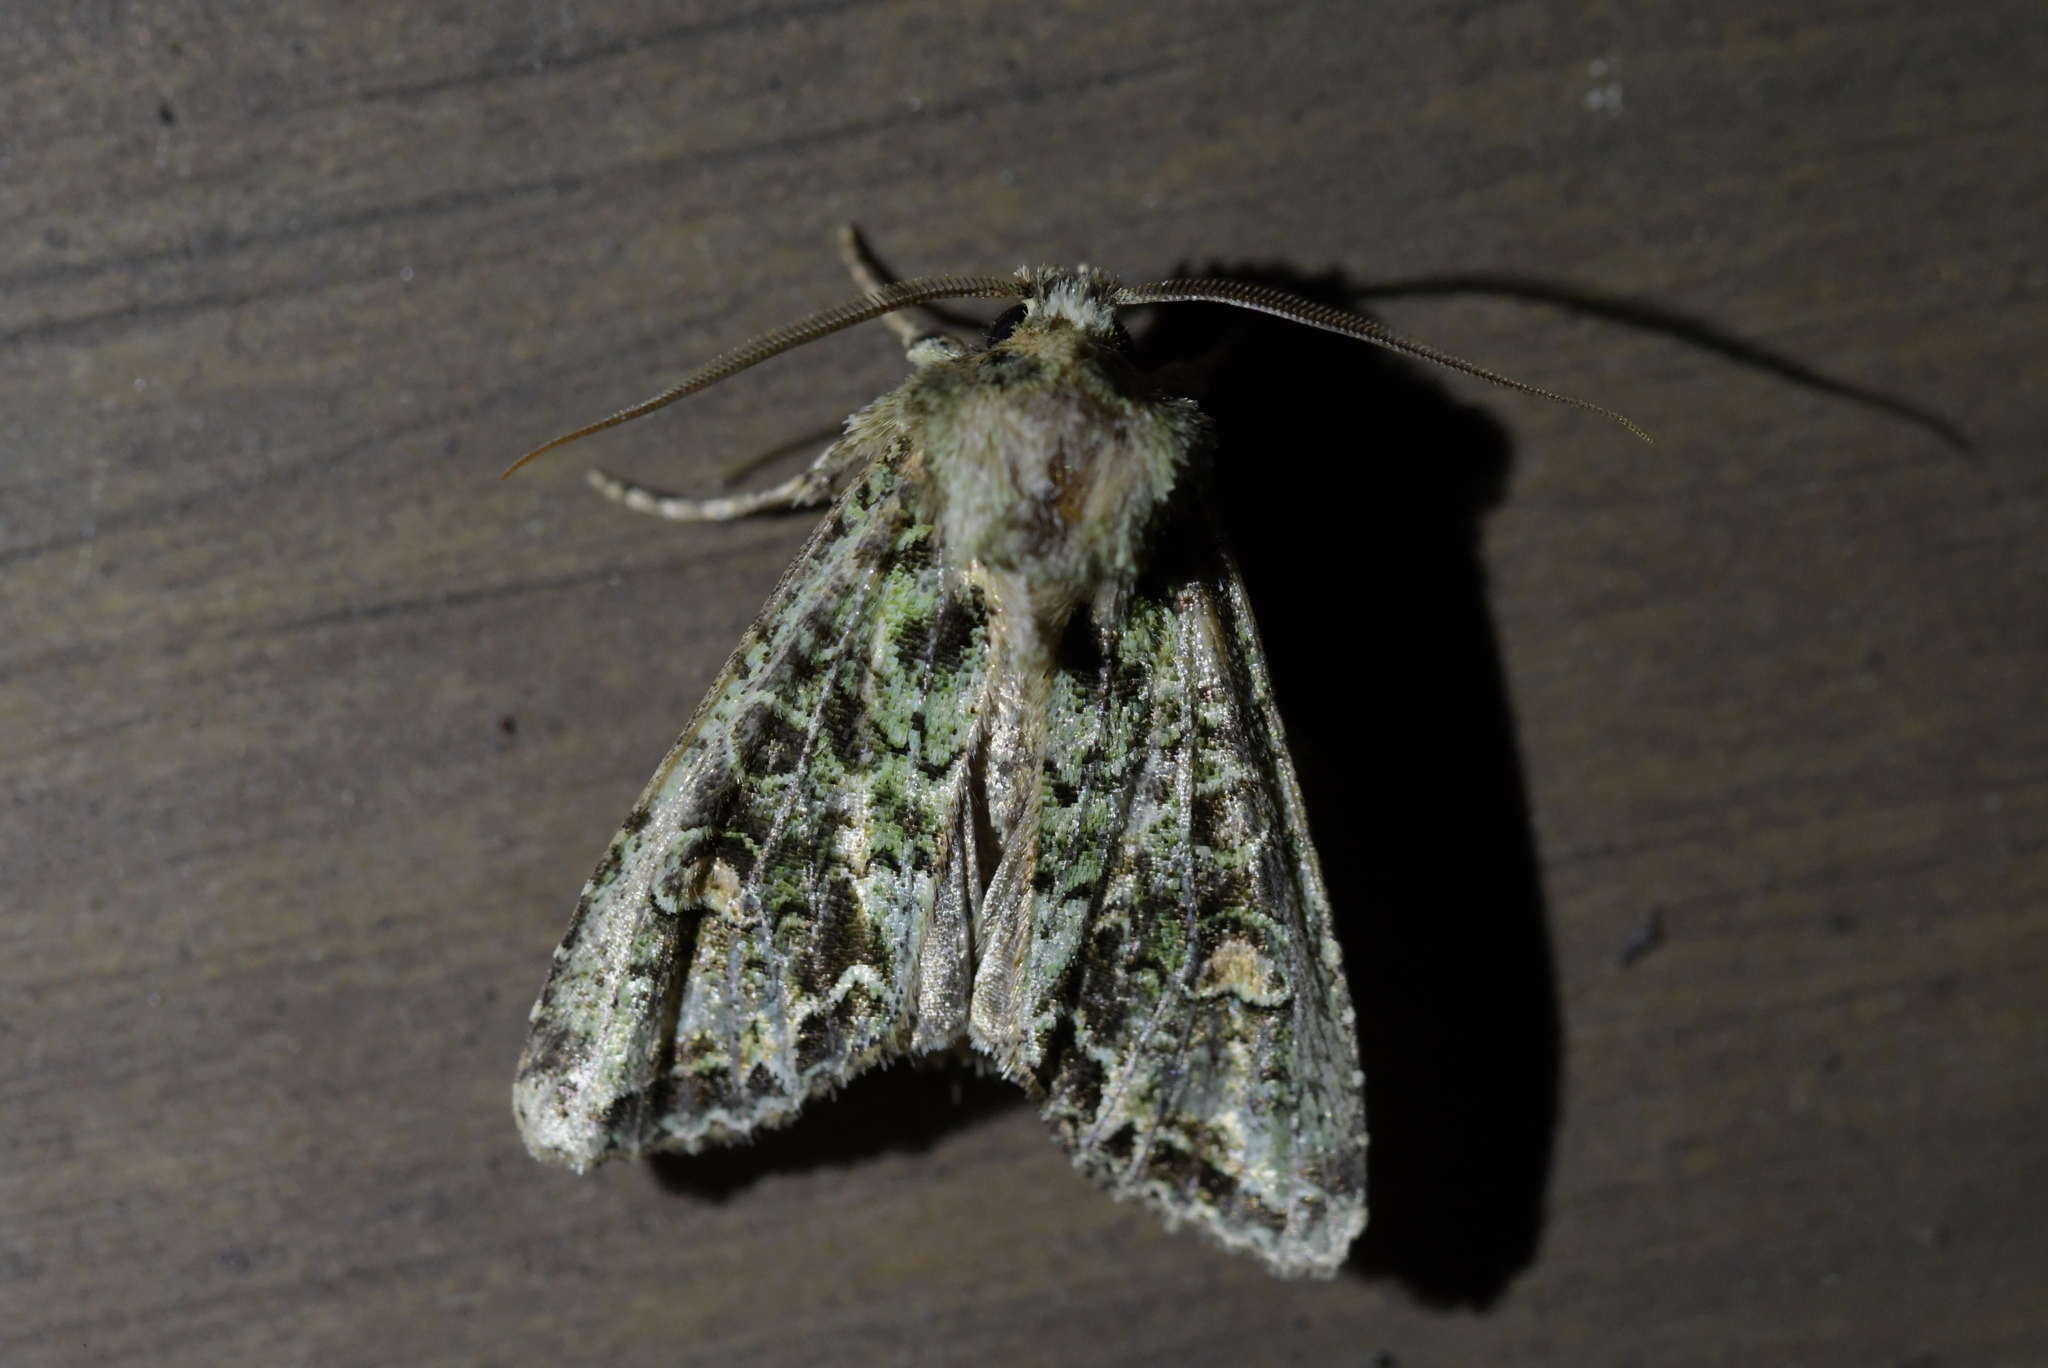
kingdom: Animalia
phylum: Arthropoda
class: Insecta
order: Lepidoptera
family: Noctuidae
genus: Ichneutica
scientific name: Ichneutica
